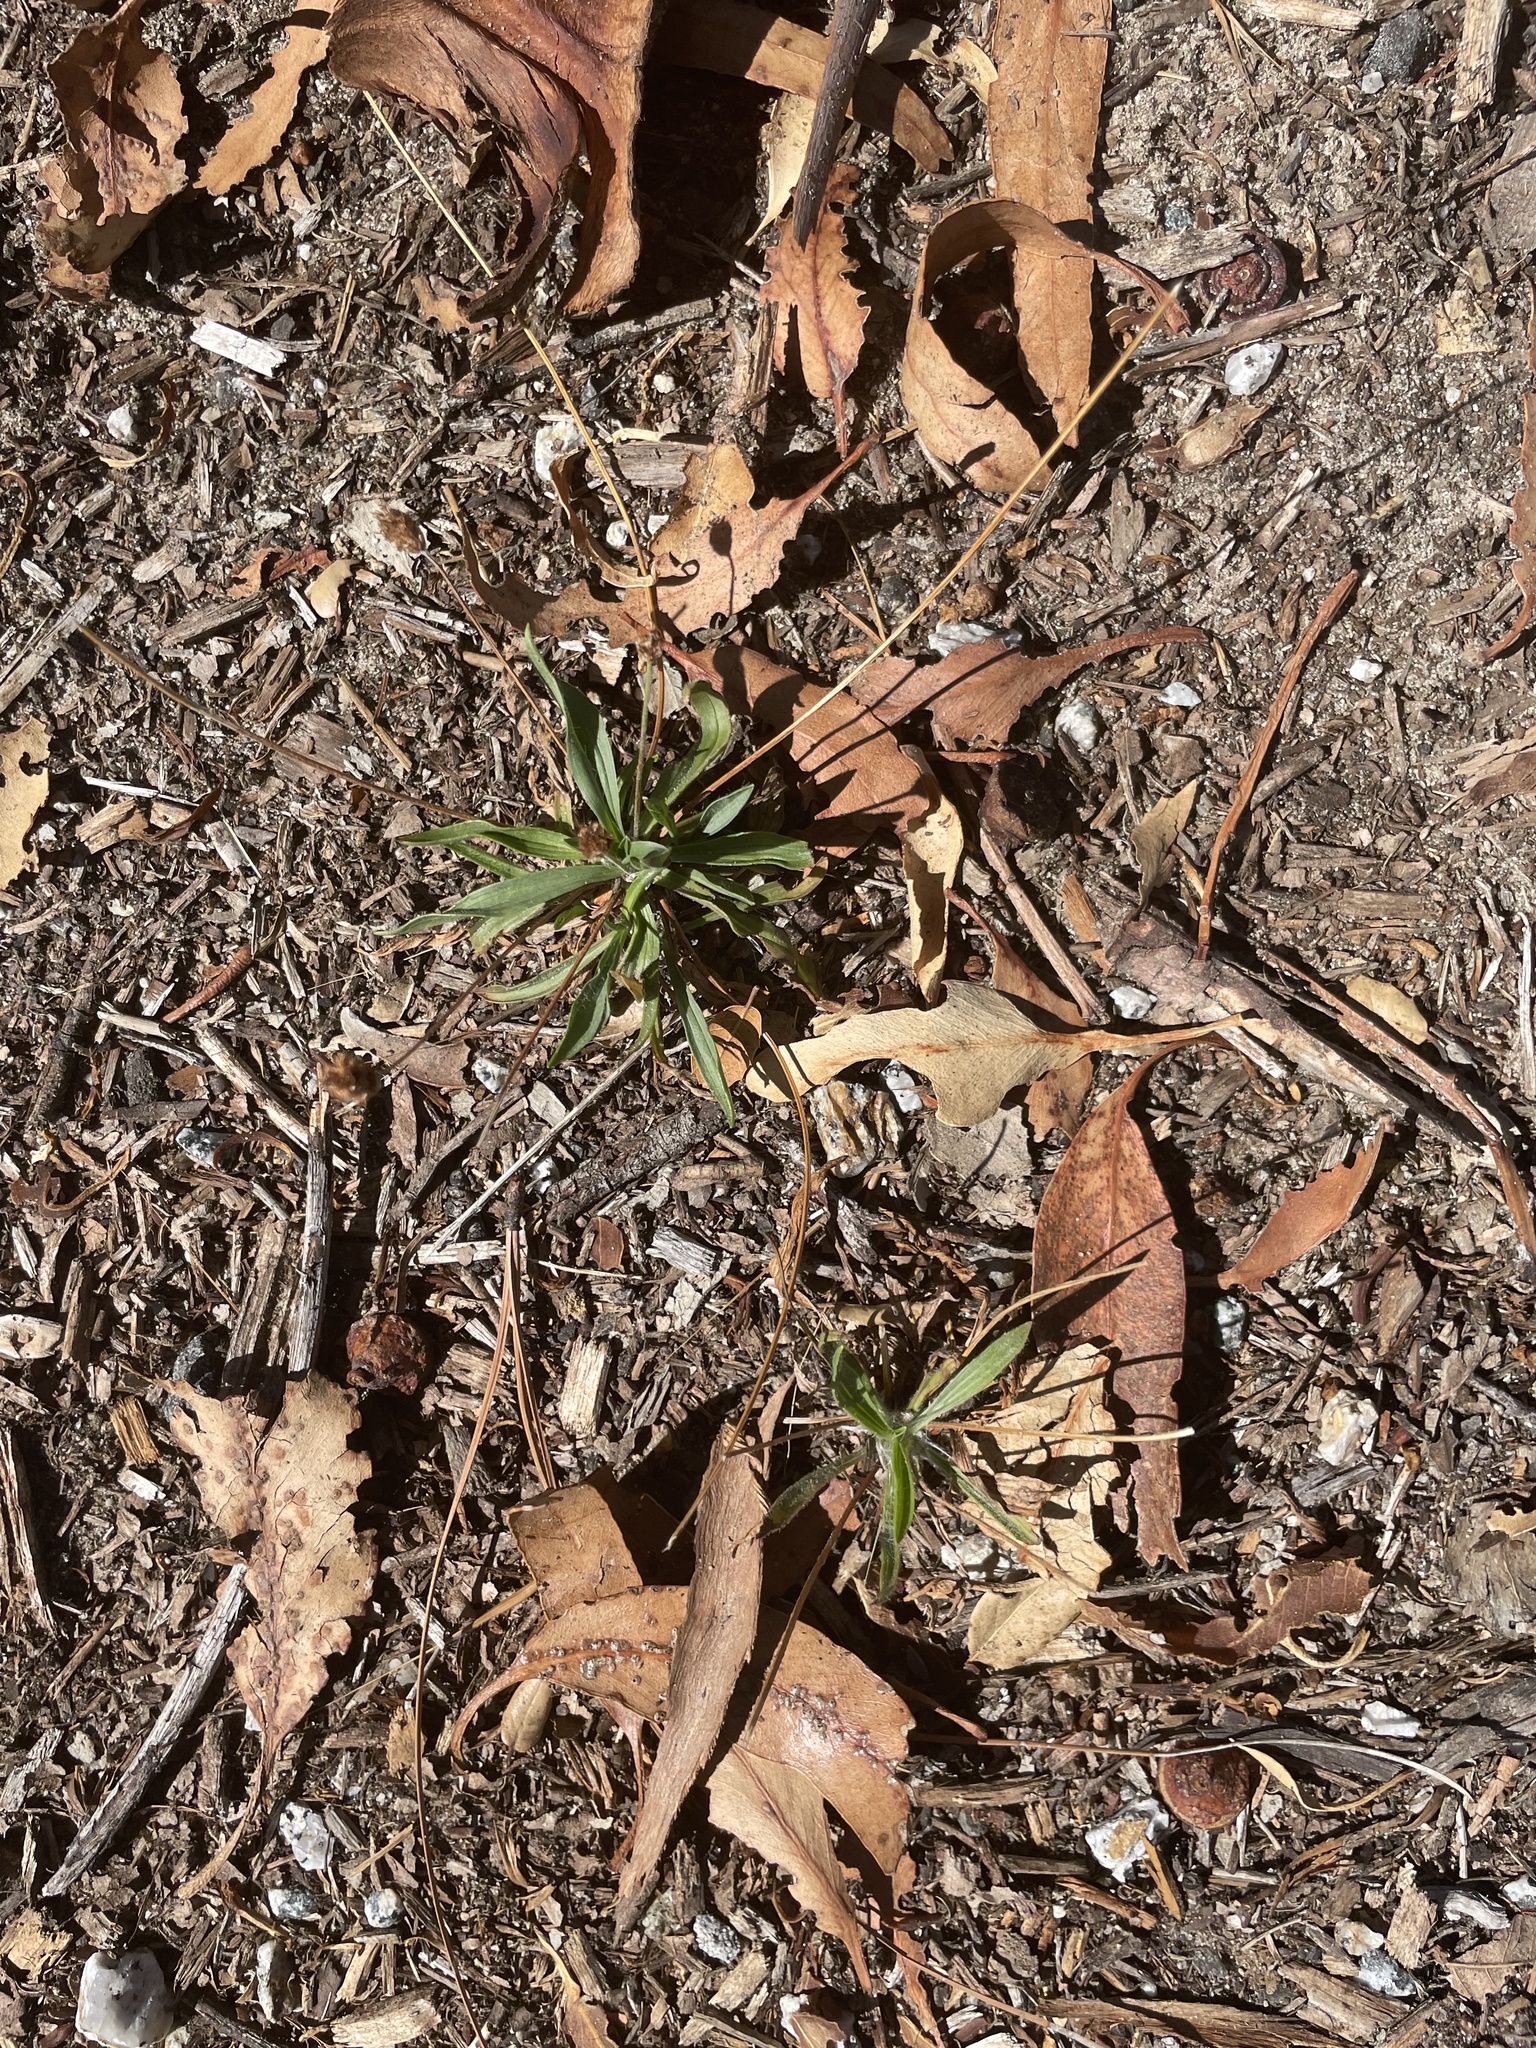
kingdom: Plantae
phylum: Tracheophyta
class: Magnoliopsida
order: Lamiales
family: Plantaginaceae
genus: Plantago
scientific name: Plantago lanceolata
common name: Ribwort plantain
